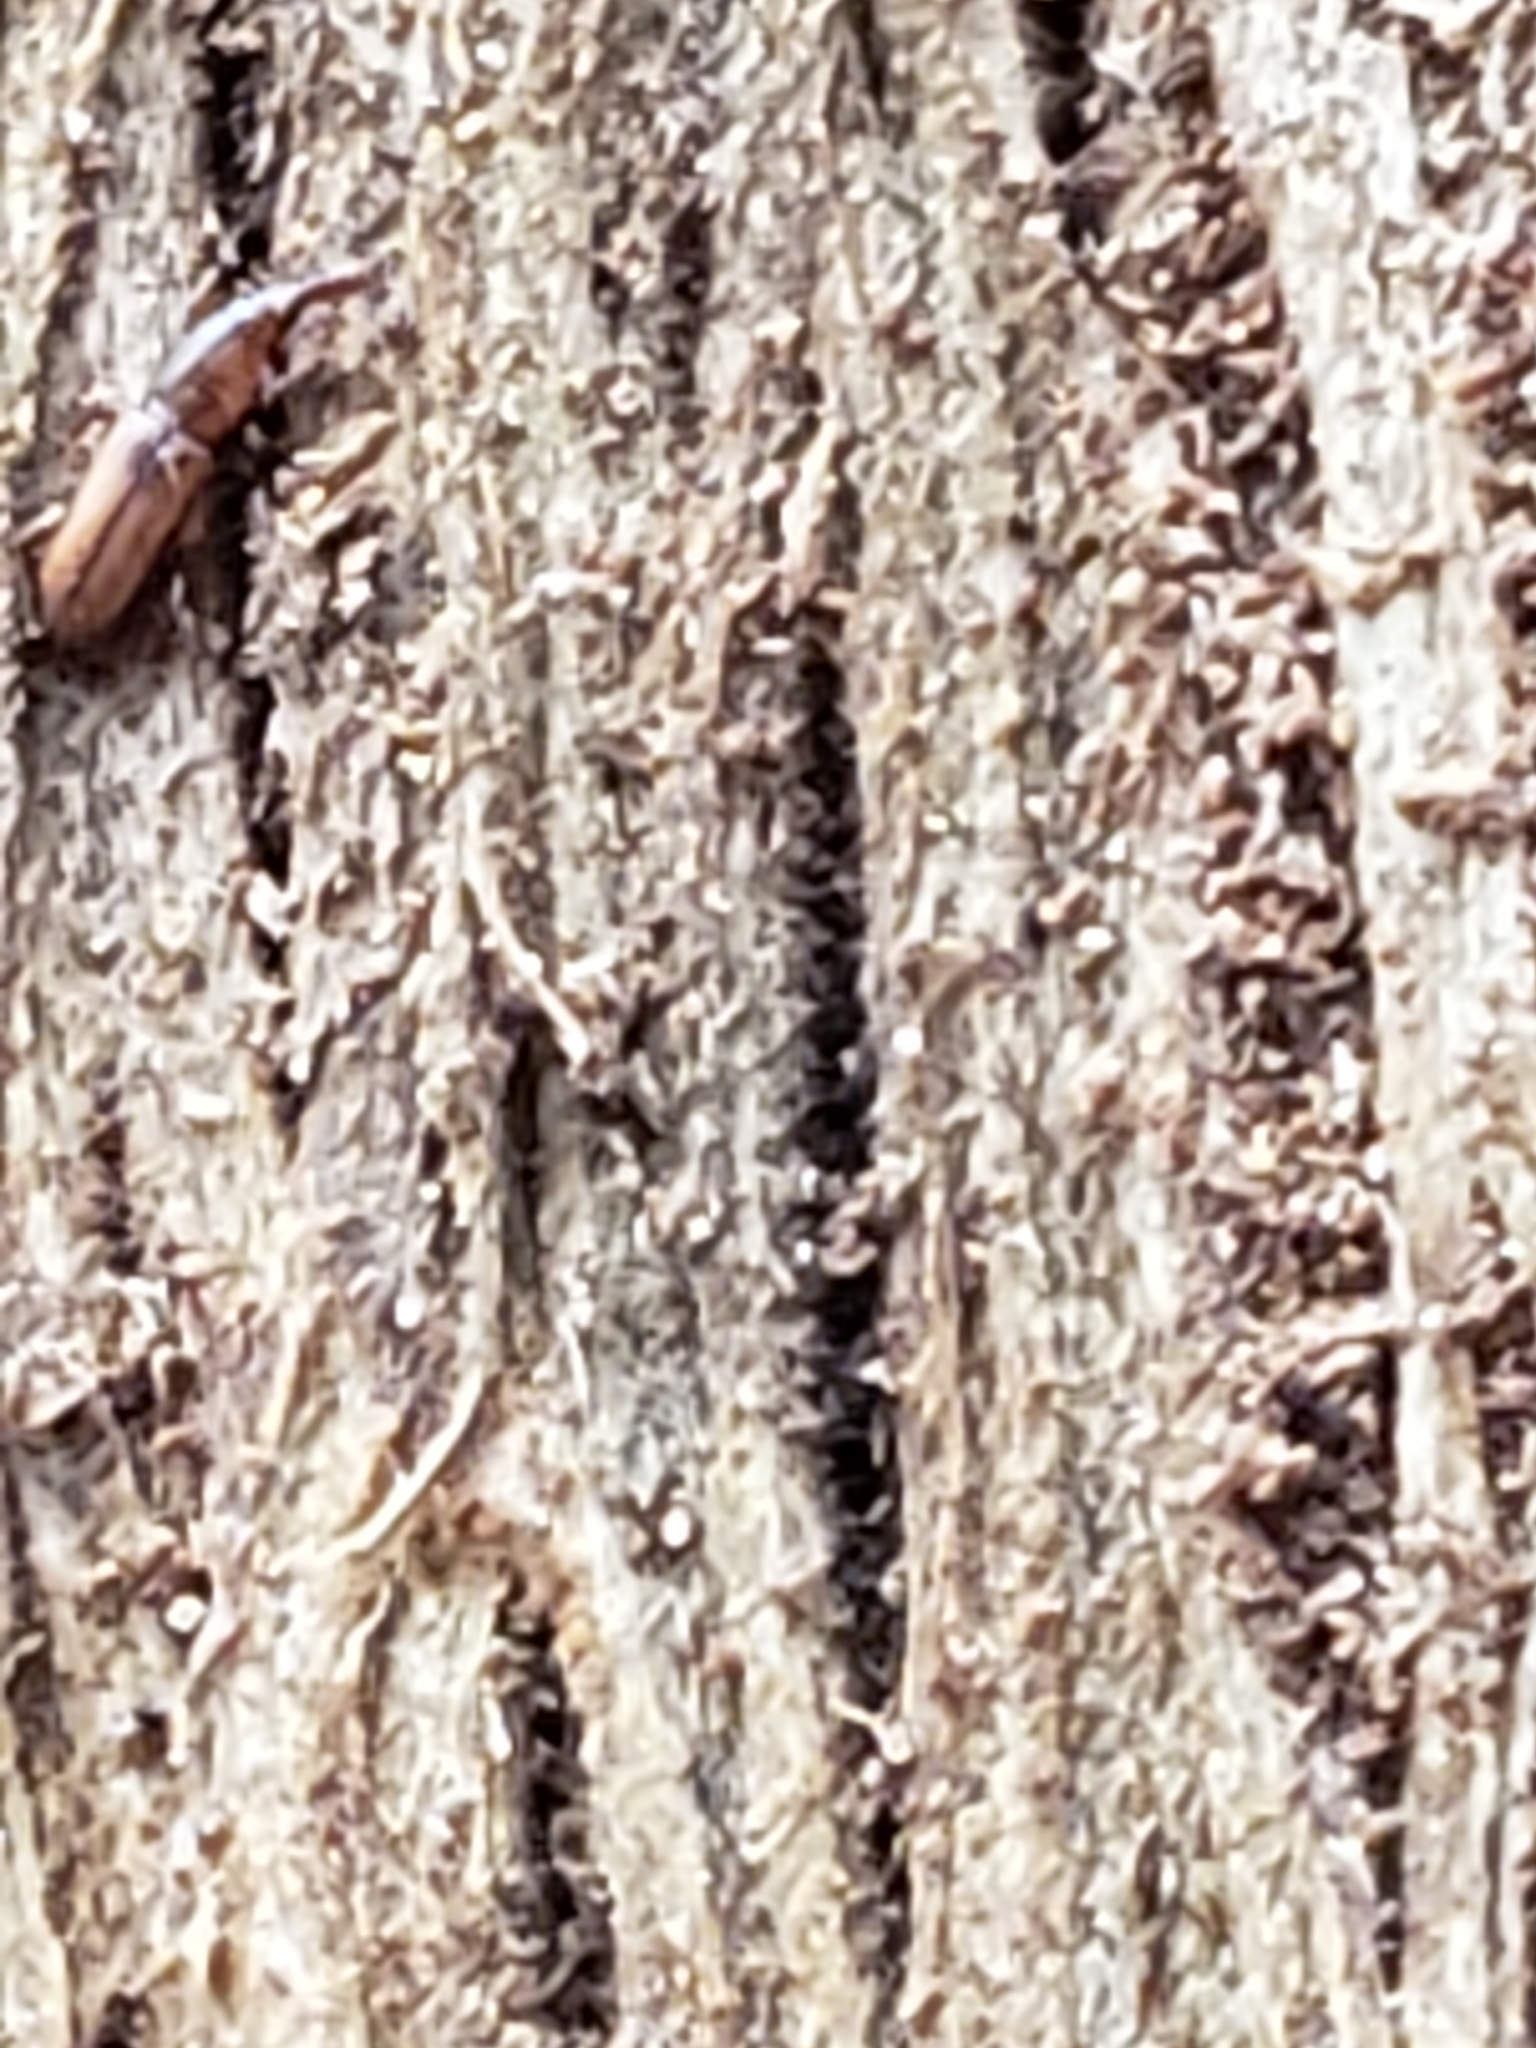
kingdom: Animalia
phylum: Arthropoda
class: Insecta
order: Coleoptera
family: Curculionidae
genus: Stenomimus
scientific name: Stenomimus pallidus
